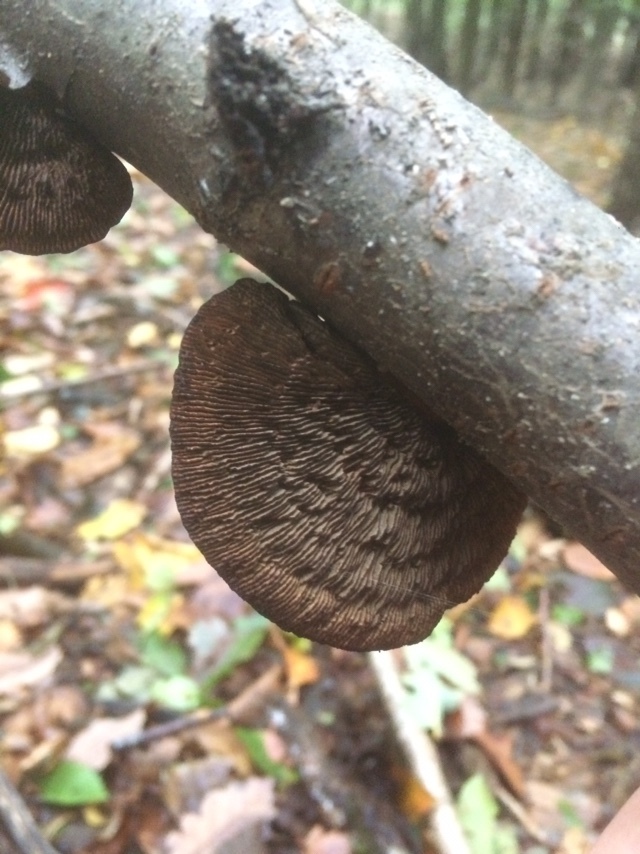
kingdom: Fungi
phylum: Basidiomycota
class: Agaricomycetes
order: Polyporales
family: Polyporaceae
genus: Daedaleopsis
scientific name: Daedaleopsis tricolor
